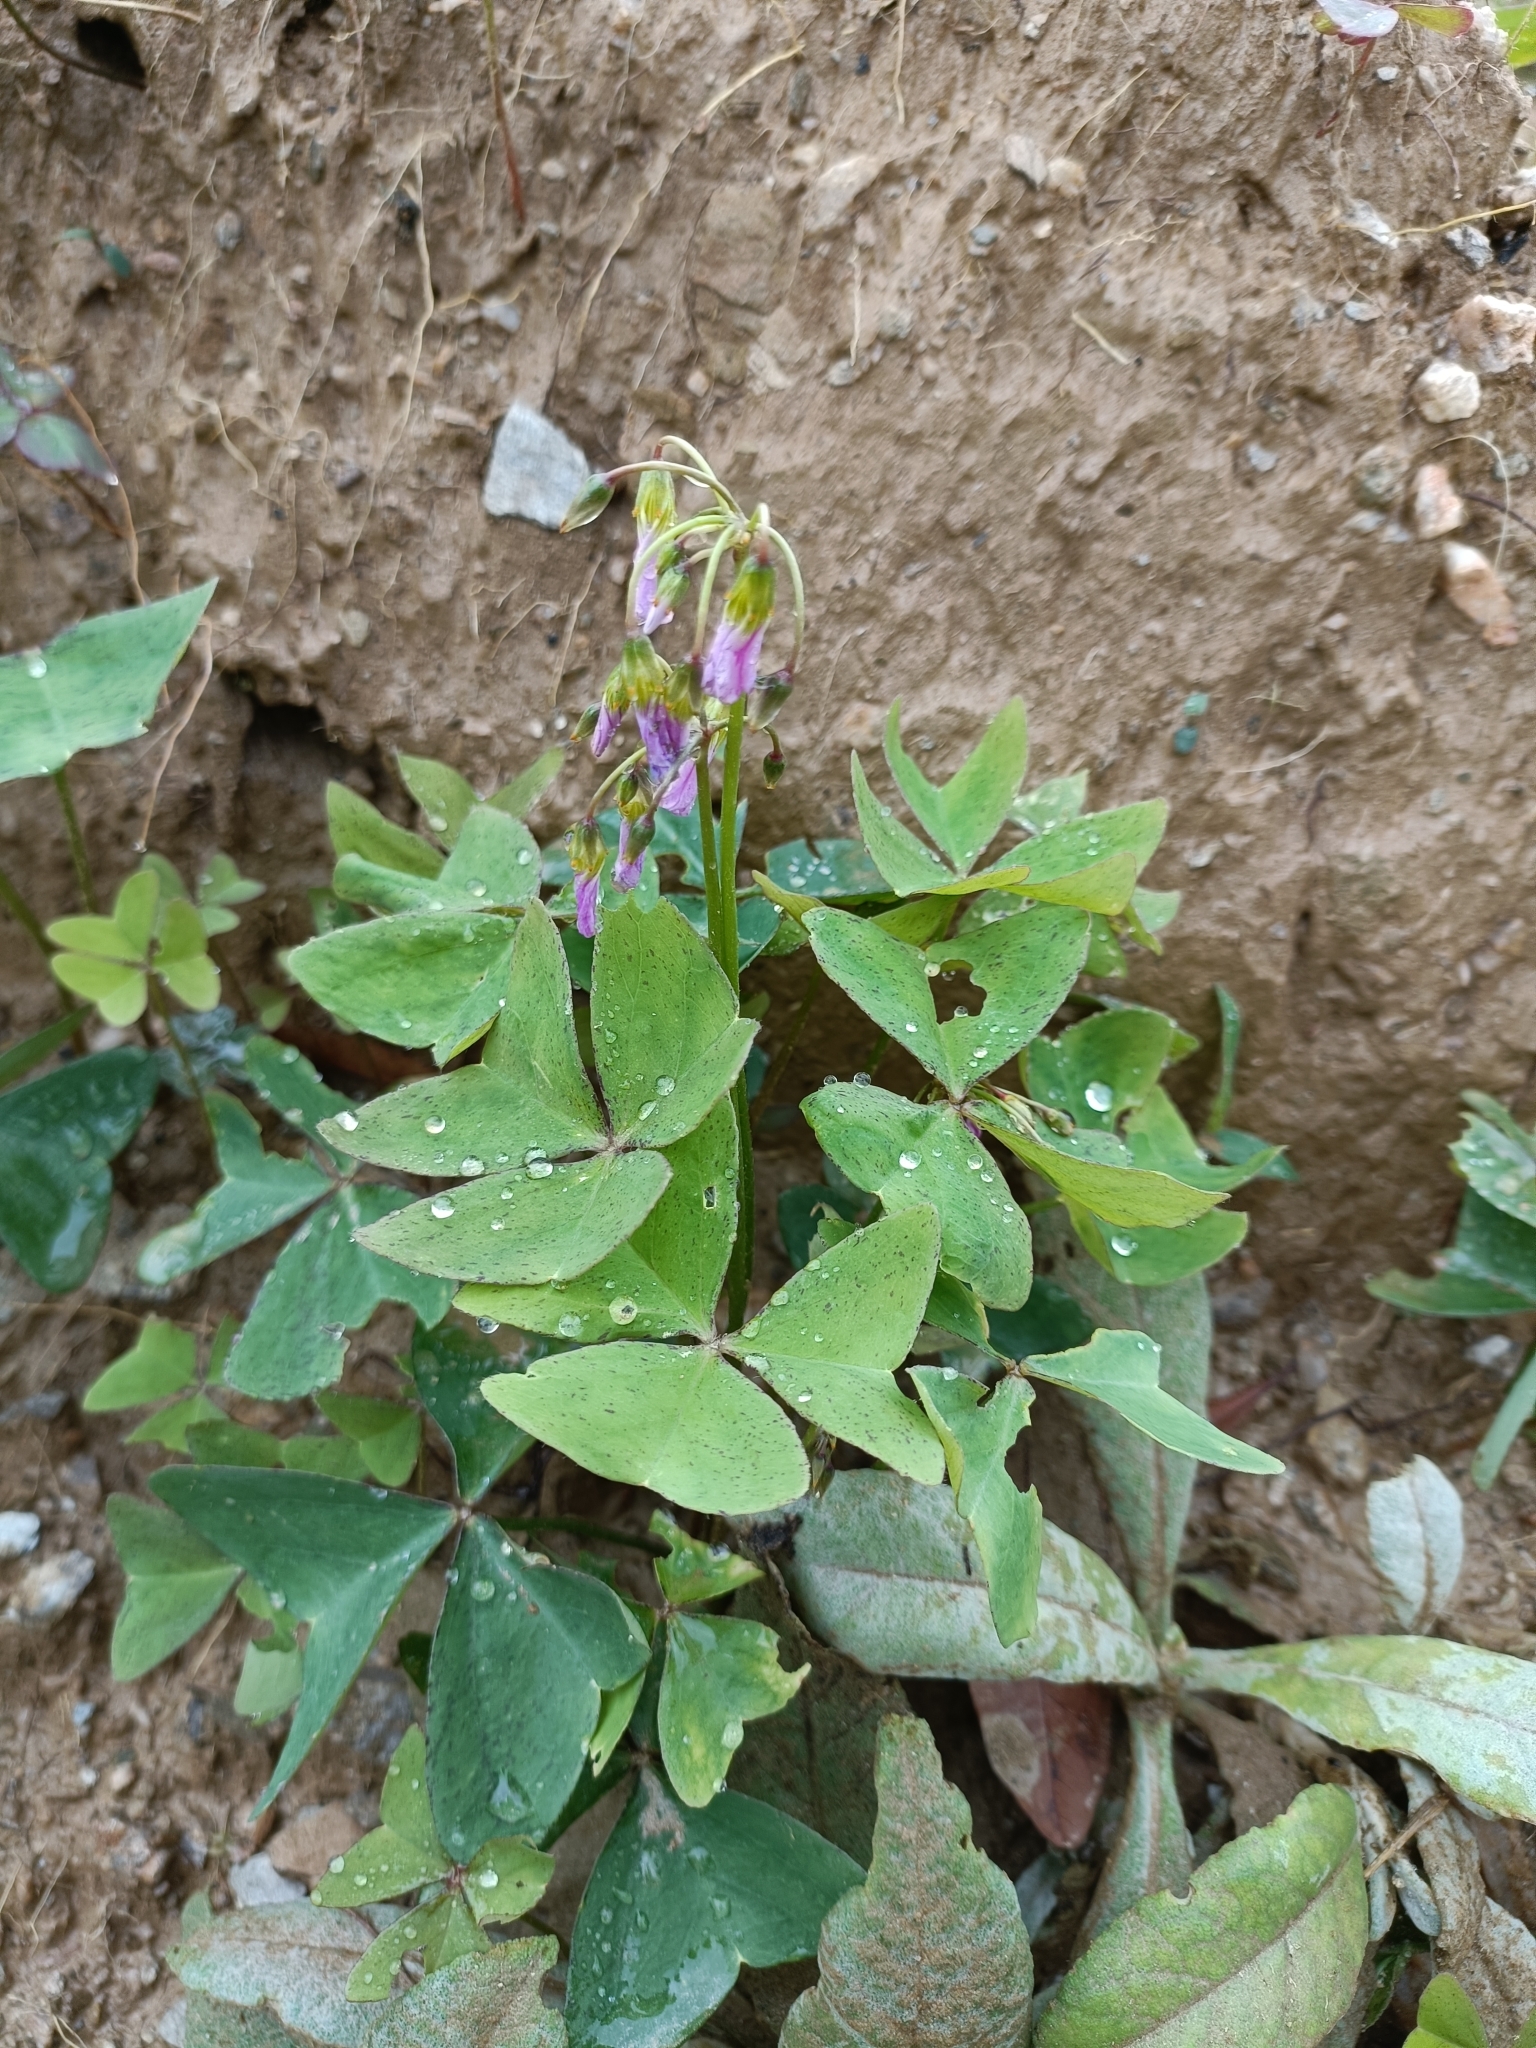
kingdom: Plantae
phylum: Tracheophyta
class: Magnoliopsida
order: Oxalidales
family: Oxalidaceae
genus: Oxalis
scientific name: Oxalis latifolia
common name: Garden pink-sorrel
